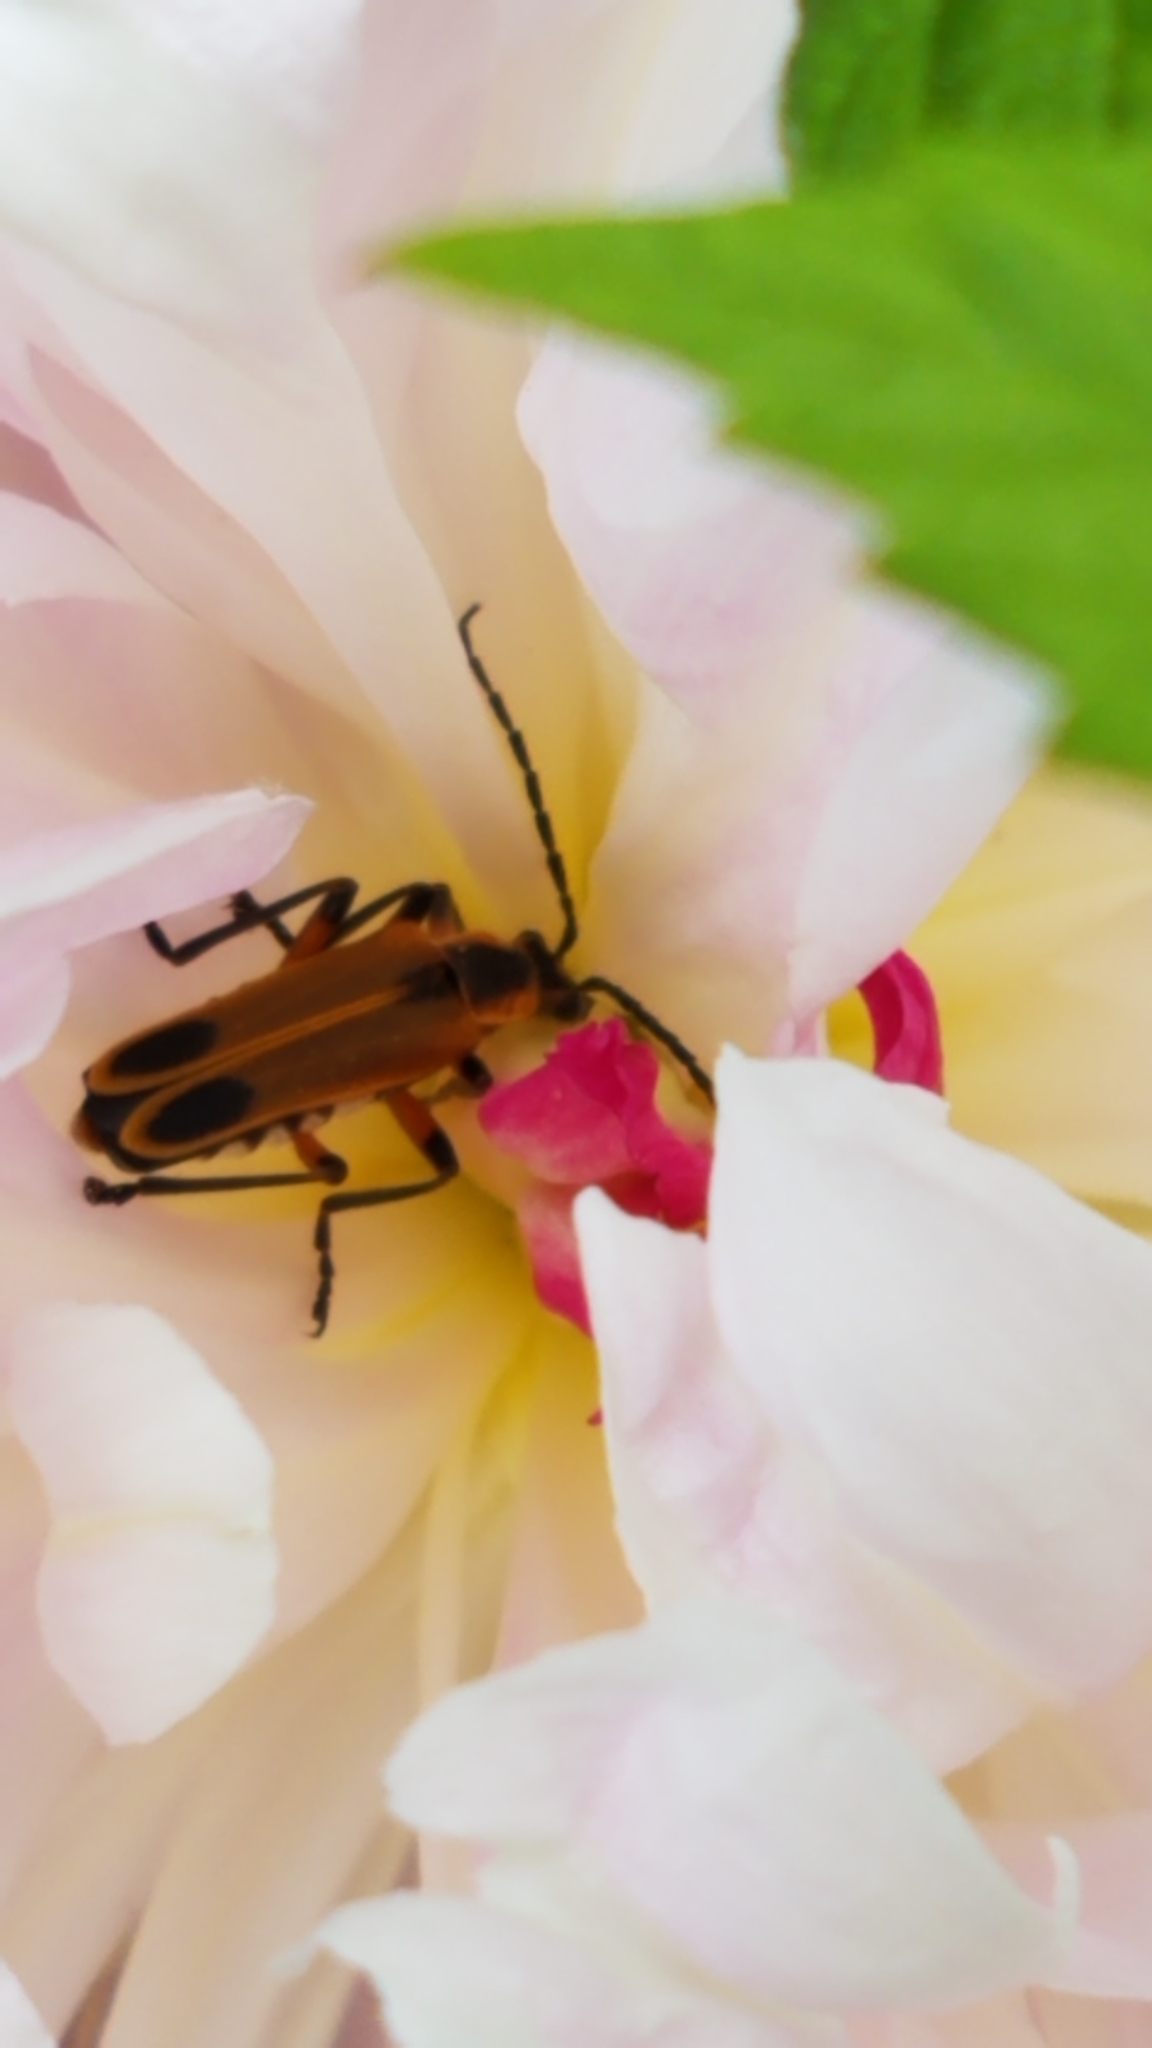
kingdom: Animalia
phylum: Arthropoda
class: Insecta
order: Coleoptera
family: Cantharidae
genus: Chauliognathus
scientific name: Chauliognathus marginatus
